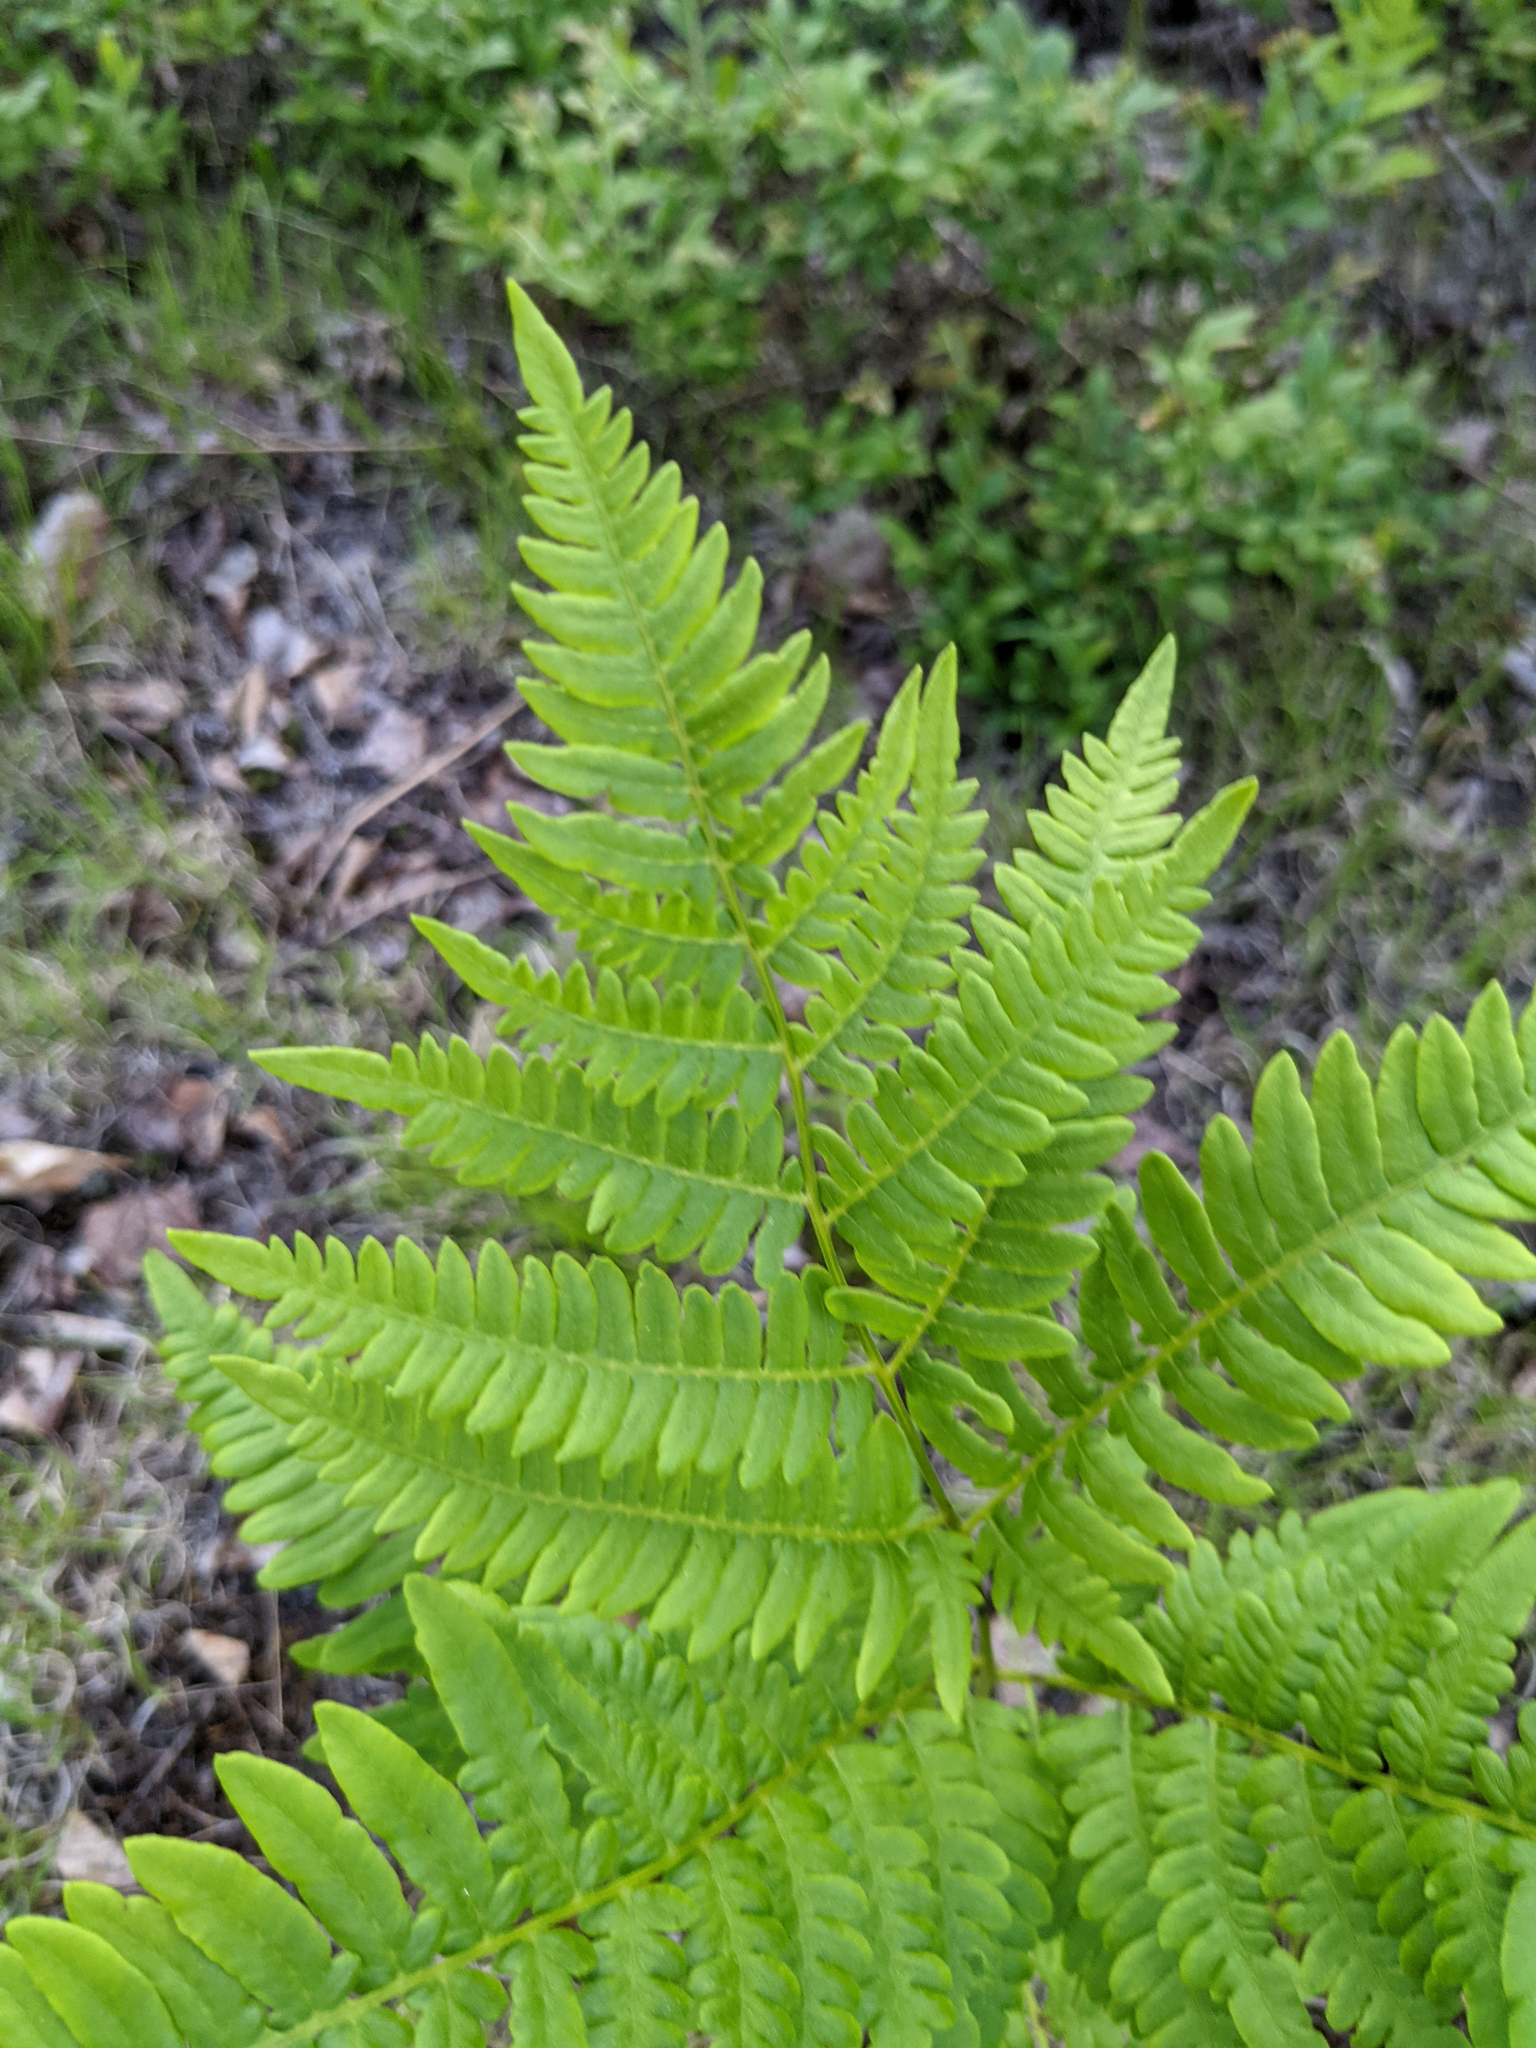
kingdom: Plantae
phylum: Tracheophyta
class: Polypodiopsida
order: Polypodiales
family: Dennstaedtiaceae
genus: Pteridium
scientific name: Pteridium aquilinum
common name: Bracken
